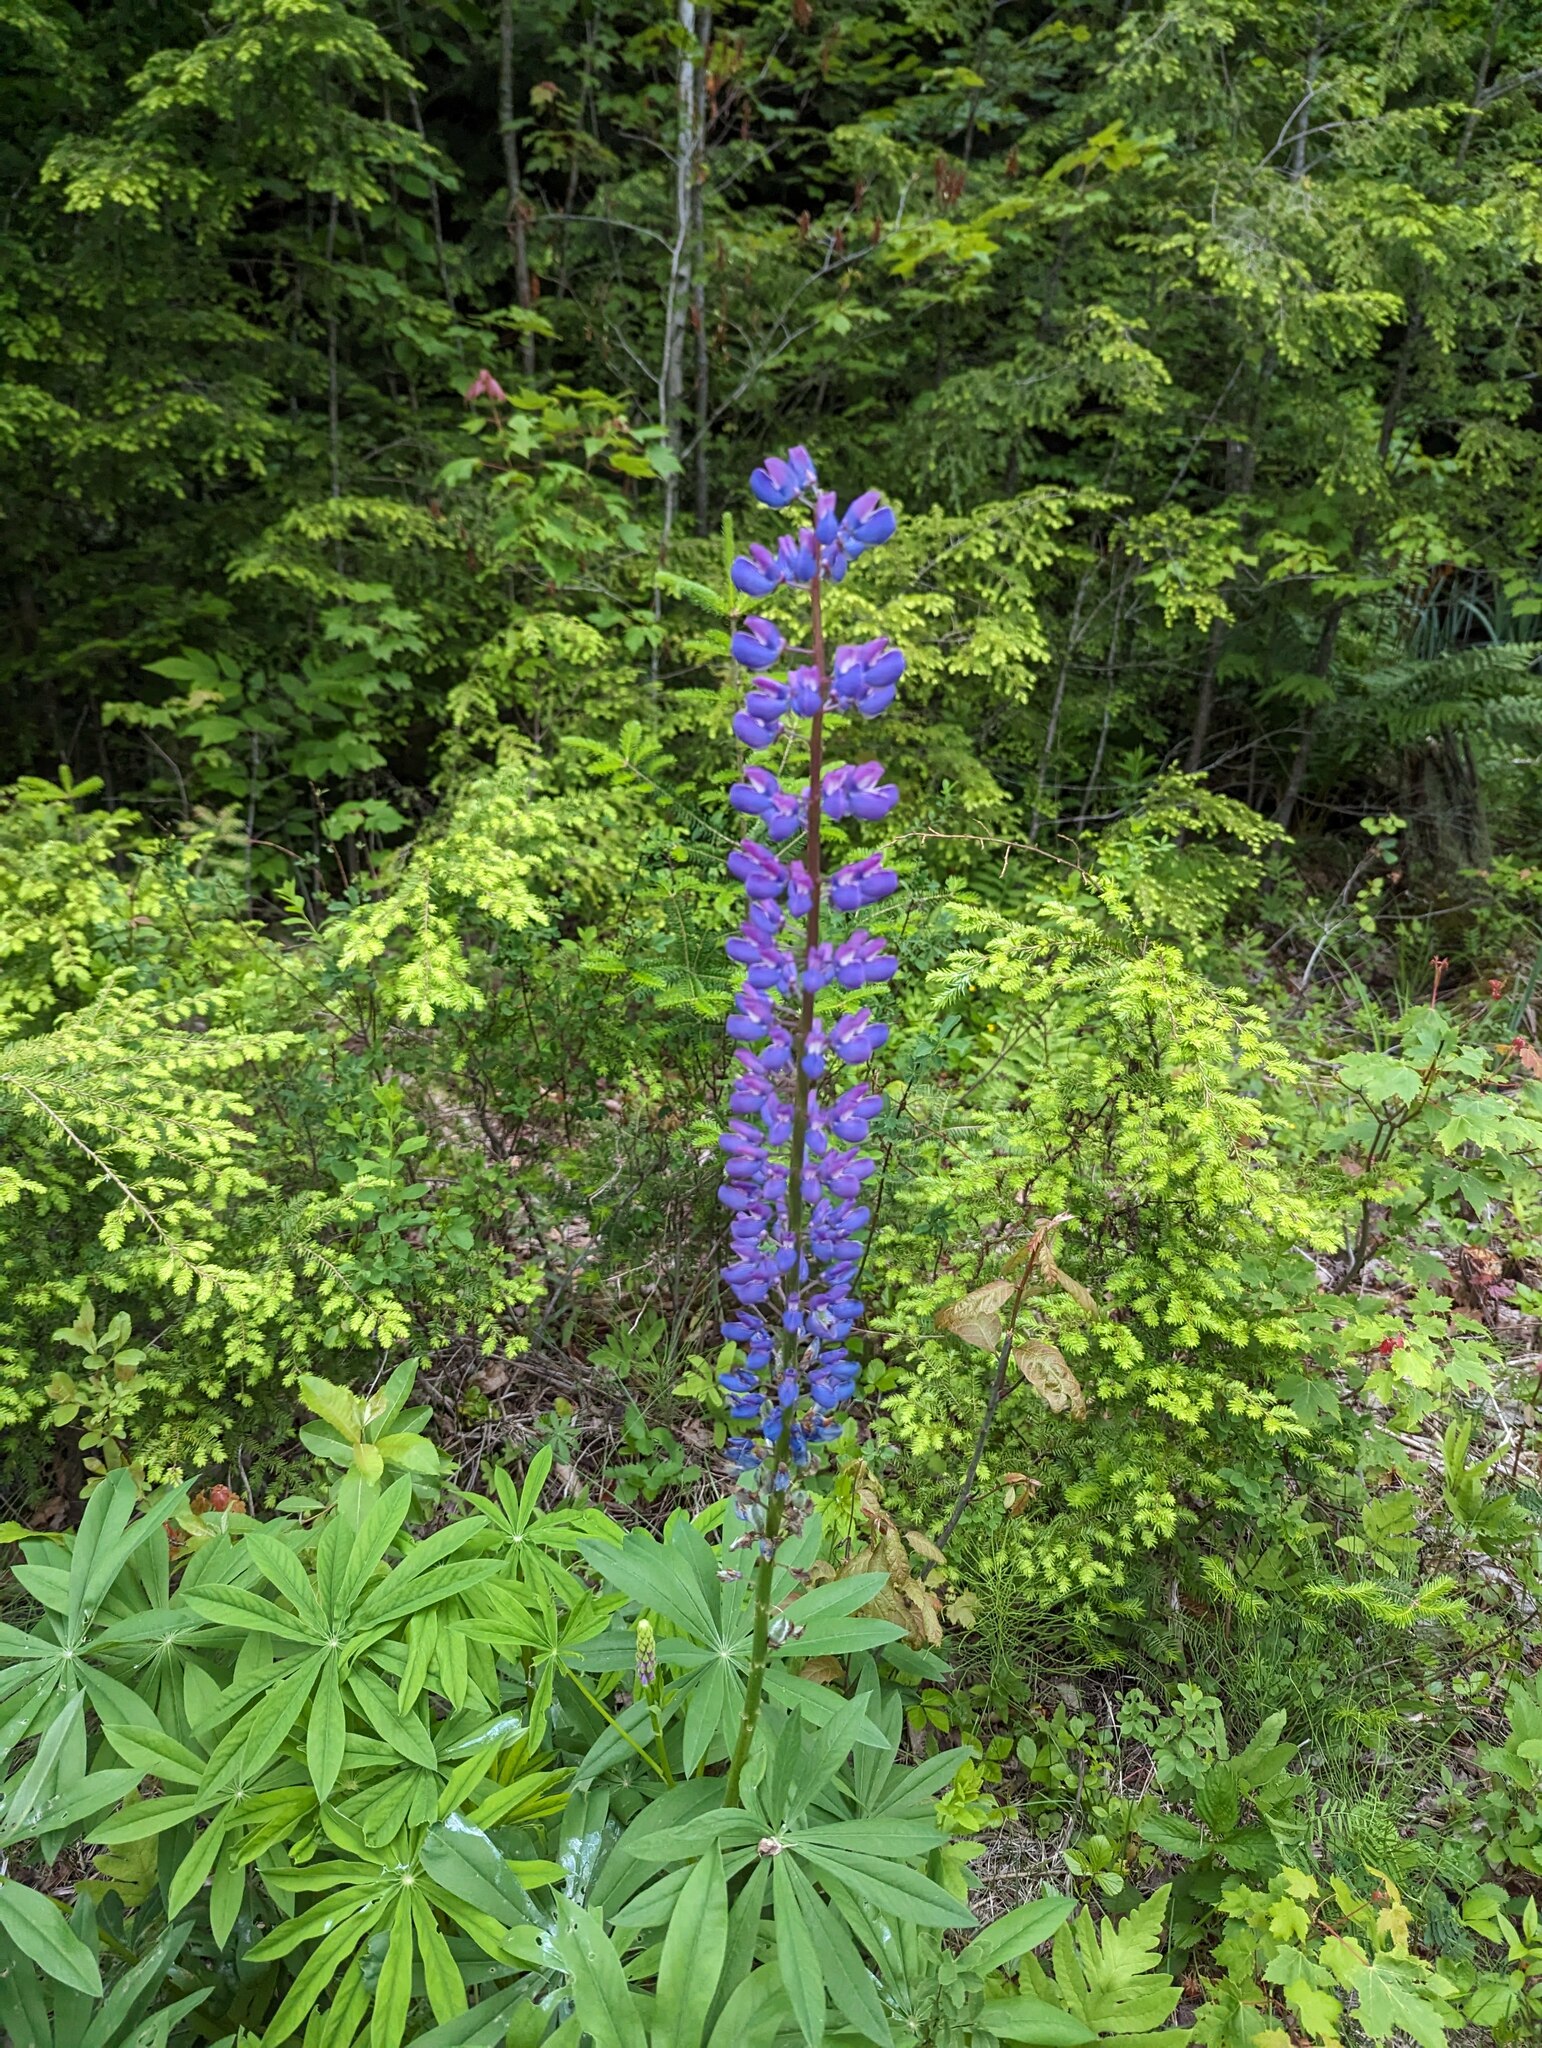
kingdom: Plantae
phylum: Tracheophyta
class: Magnoliopsida
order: Fabales
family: Fabaceae
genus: Lupinus
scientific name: Lupinus polyphyllus
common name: Garden lupin
